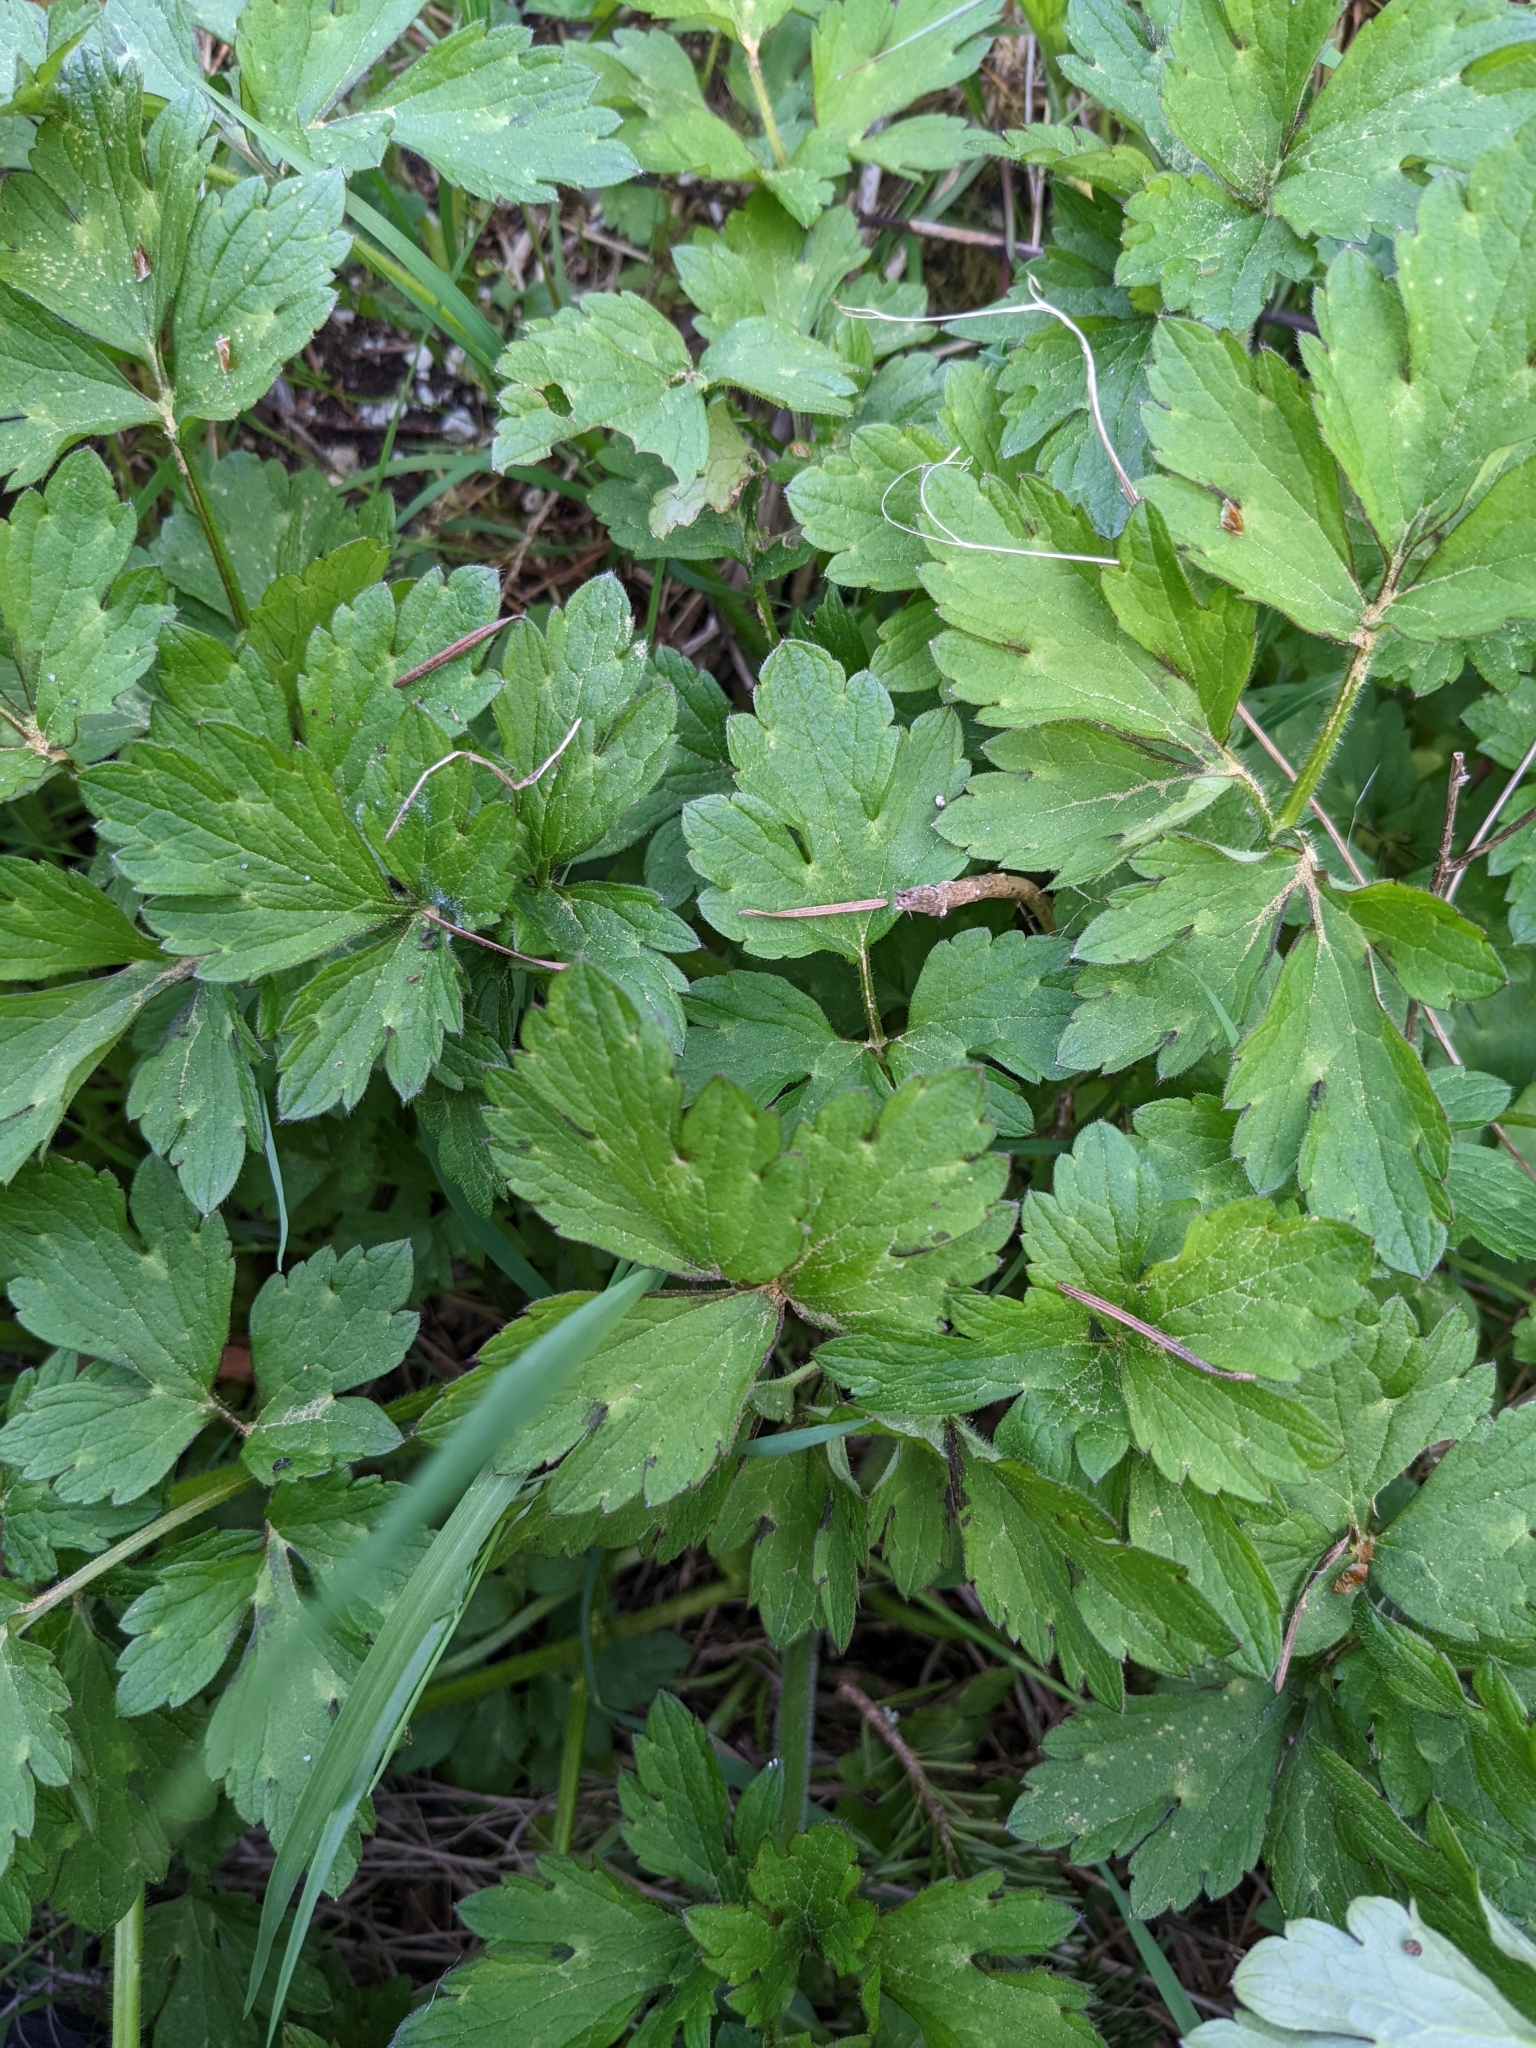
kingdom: Plantae
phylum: Tracheophyta
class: Magnoliopsida
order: Ranunculales
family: Ranunculaceae
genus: Ranunculus
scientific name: Ranunculus repens
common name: Creeping buttercup
